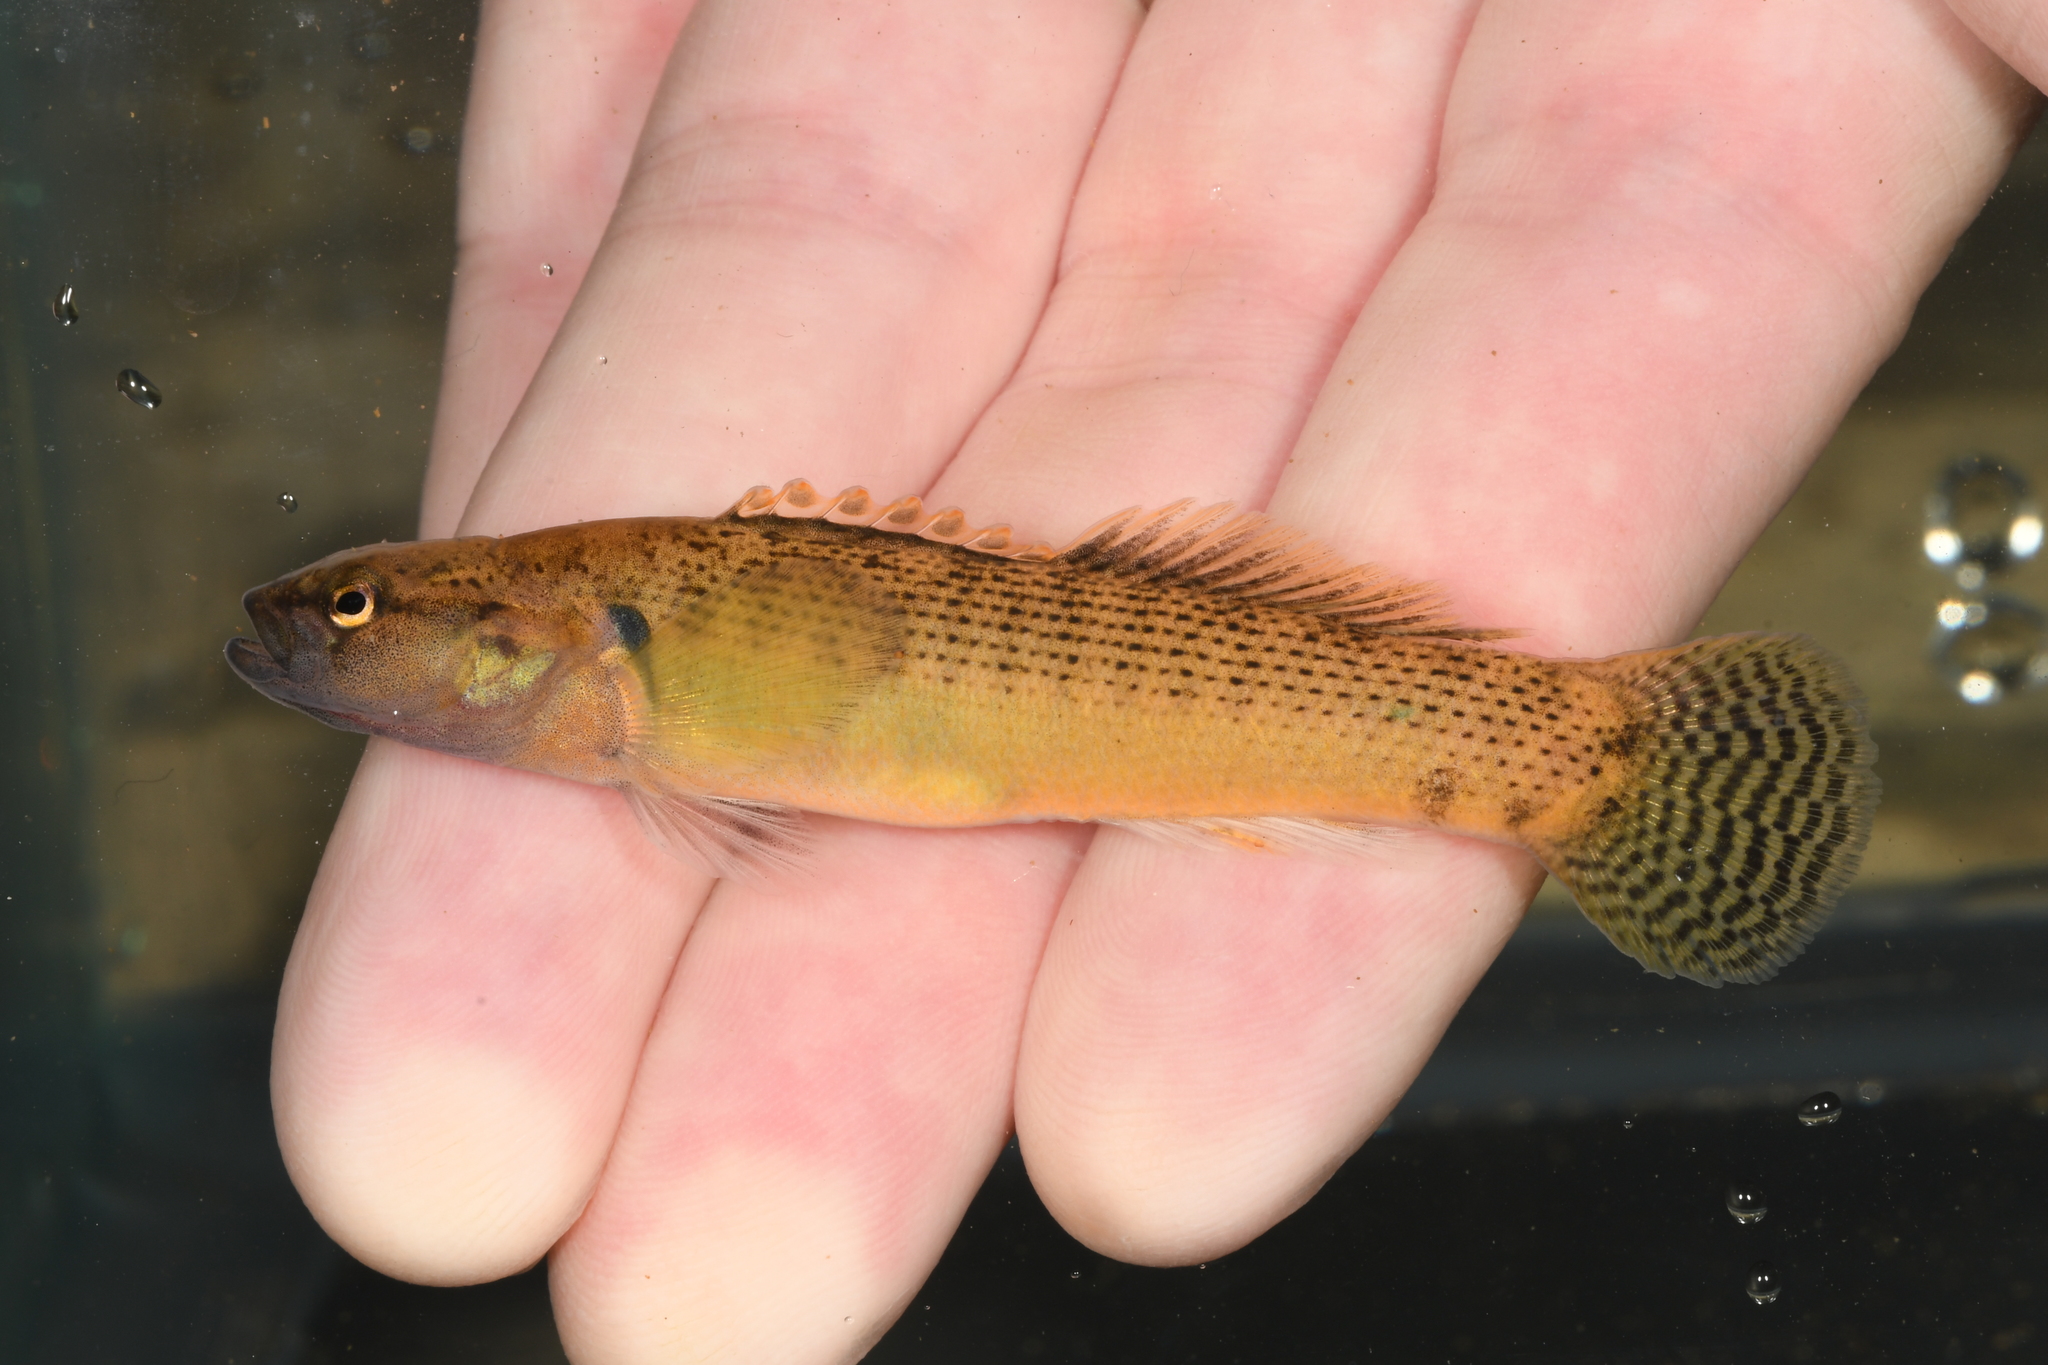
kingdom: Animalia
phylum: Chordata
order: Perciformes
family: Percidae
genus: Etheostoma
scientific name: Etheostoma flabellare
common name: Fantail darter
